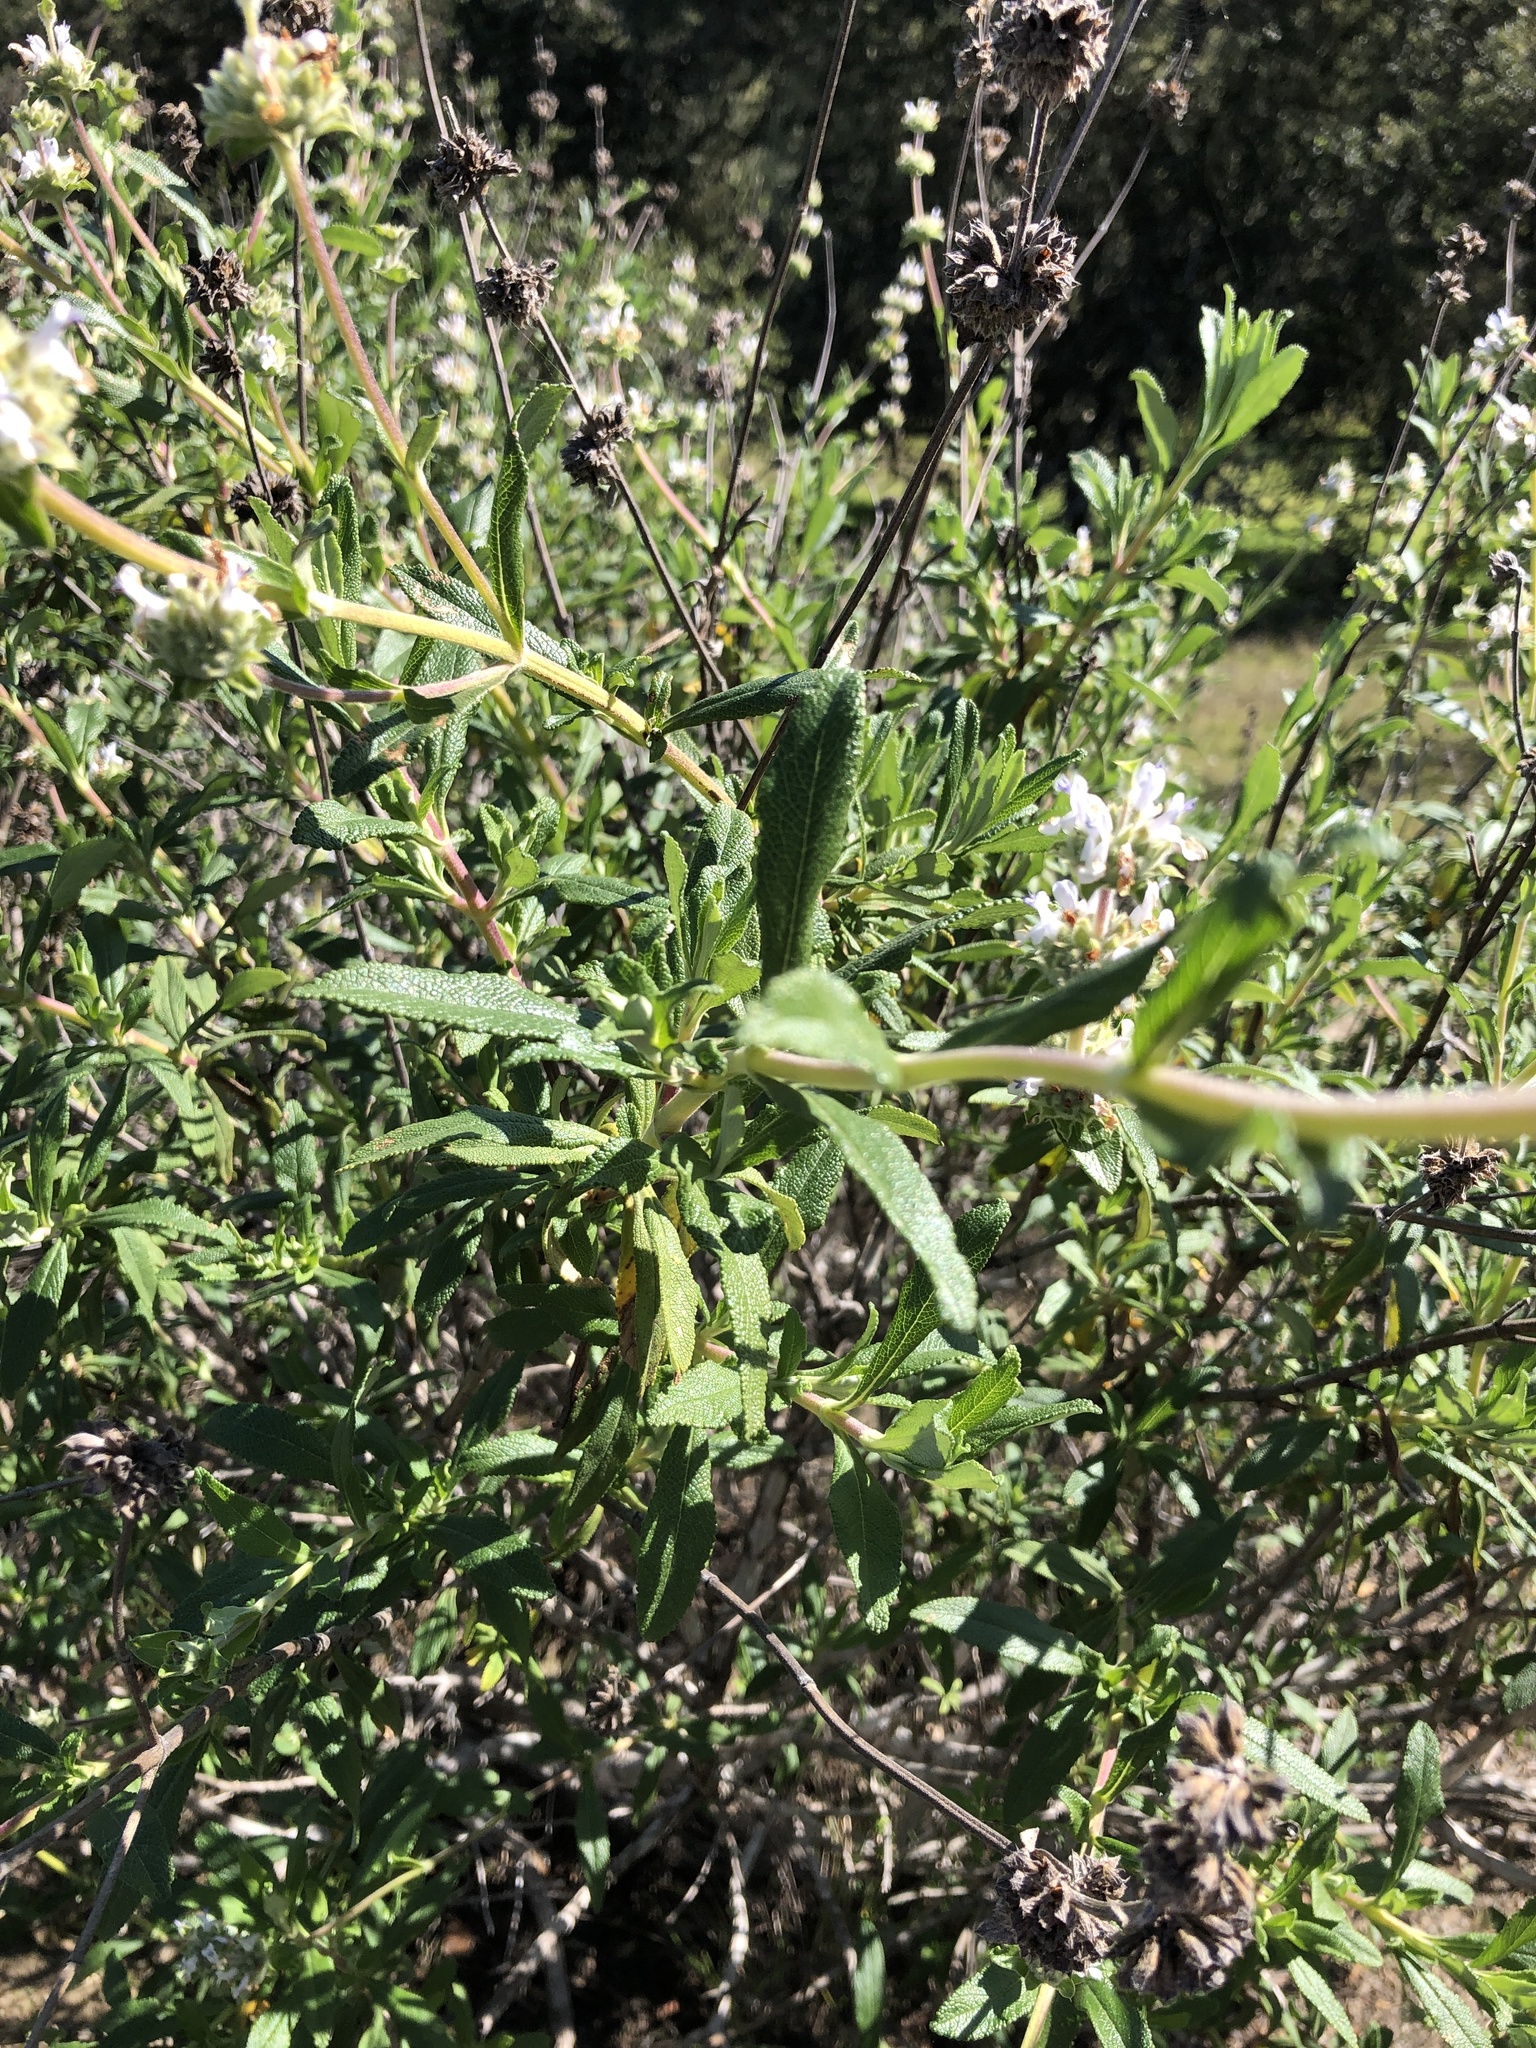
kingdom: Plantae
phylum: Tracheophyta
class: Magnoliopsida
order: Lamiales
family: Lamiaceae
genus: Salvia
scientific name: Salvia mellifera
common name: Black sage
